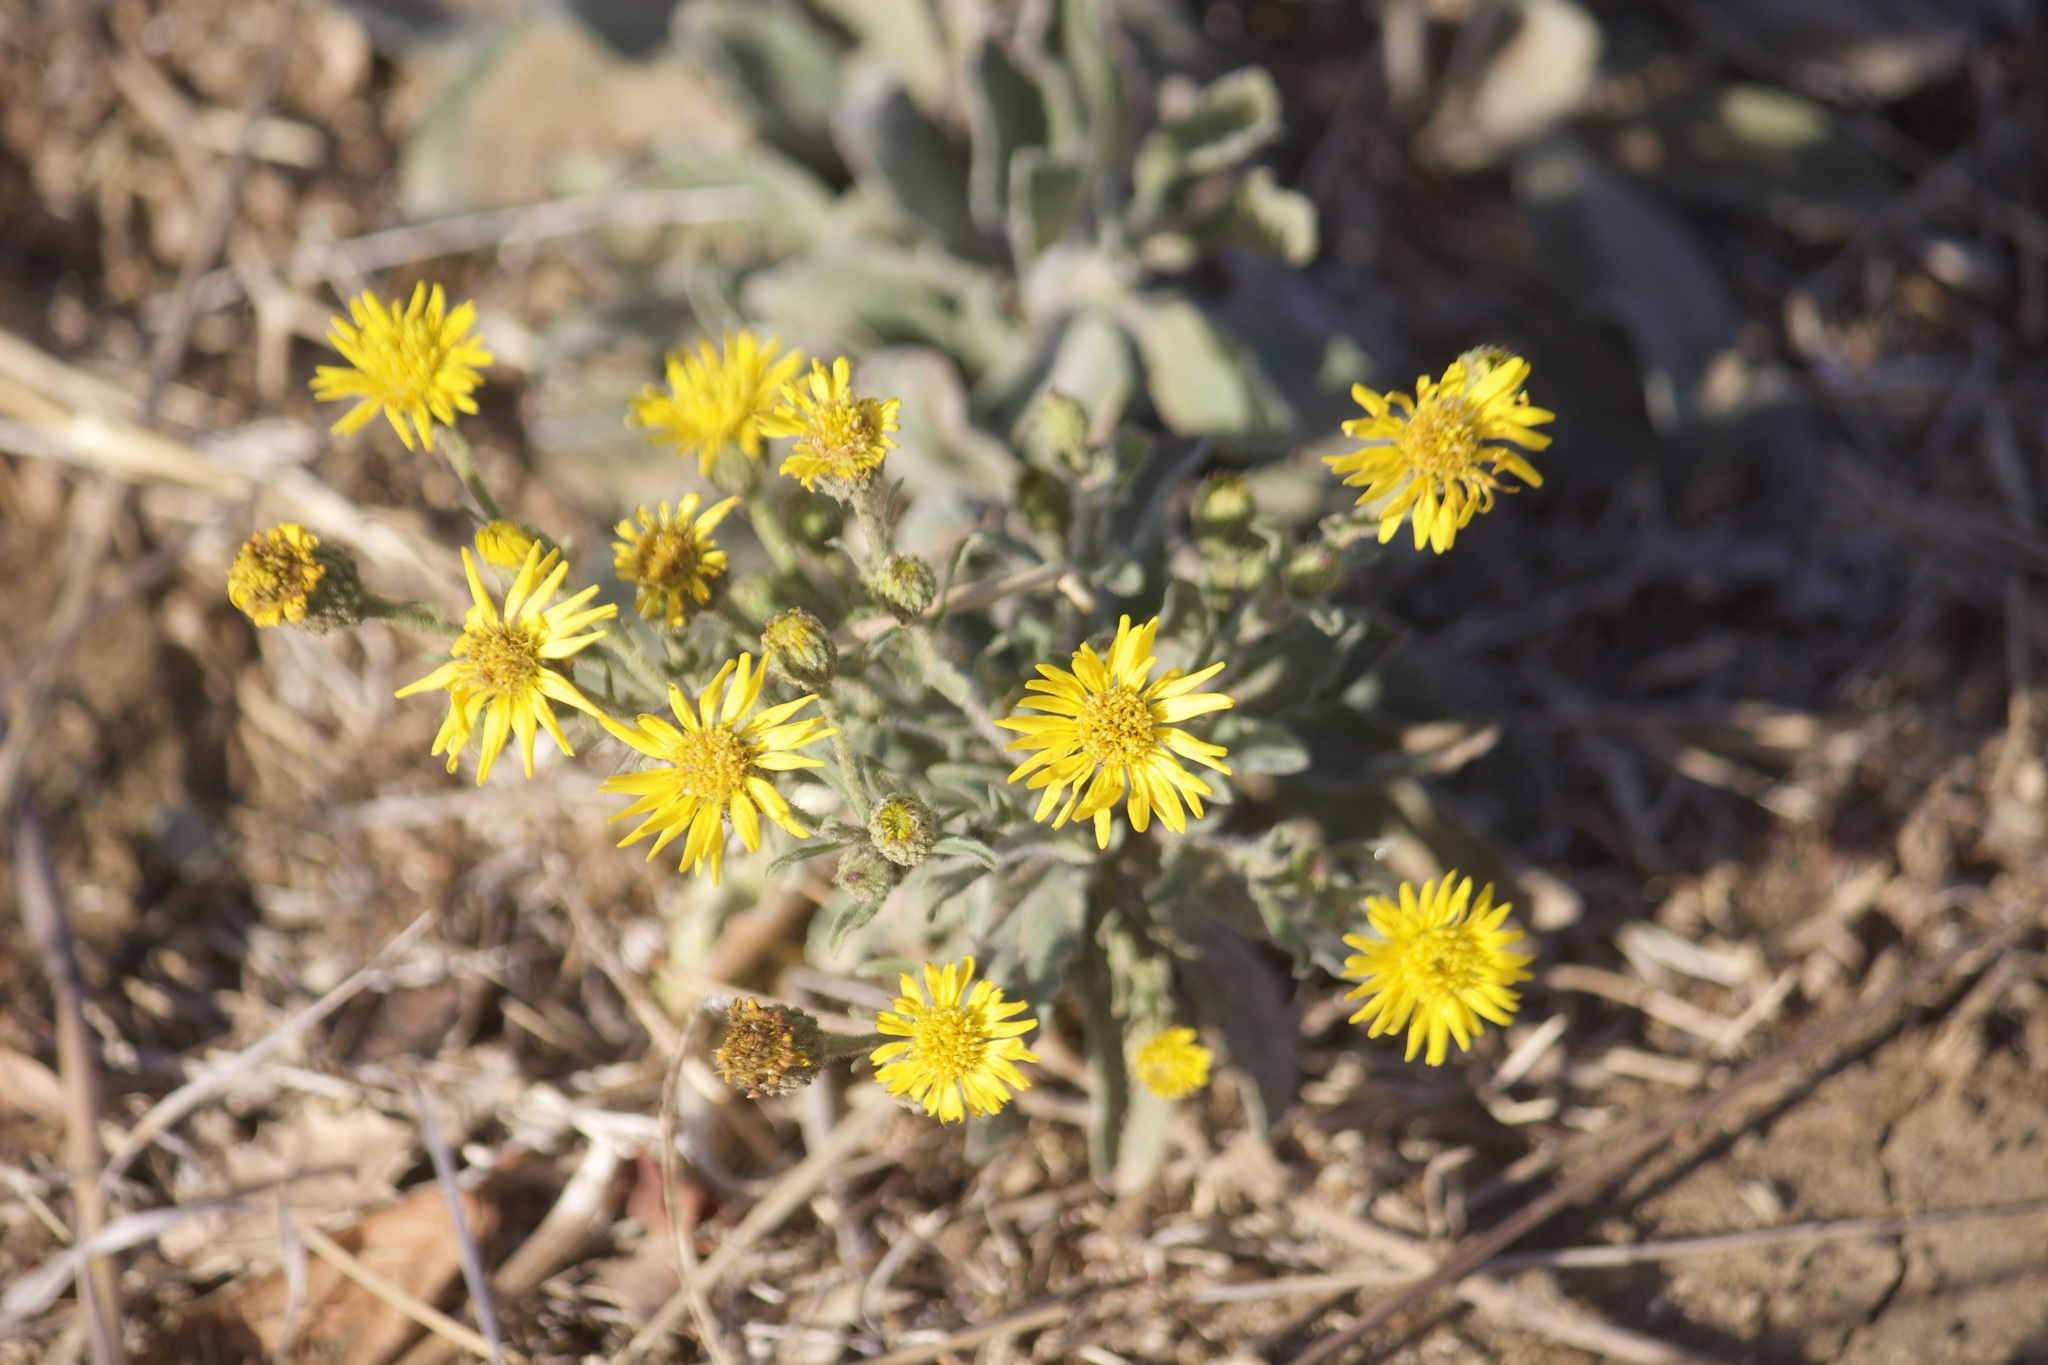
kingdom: Plantae
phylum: Tracheophyta
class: Magnoliopsida
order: Asterales
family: Asteraceae
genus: Heterotheca
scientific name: Heterotheca grandiflora
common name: Telegraphweed
